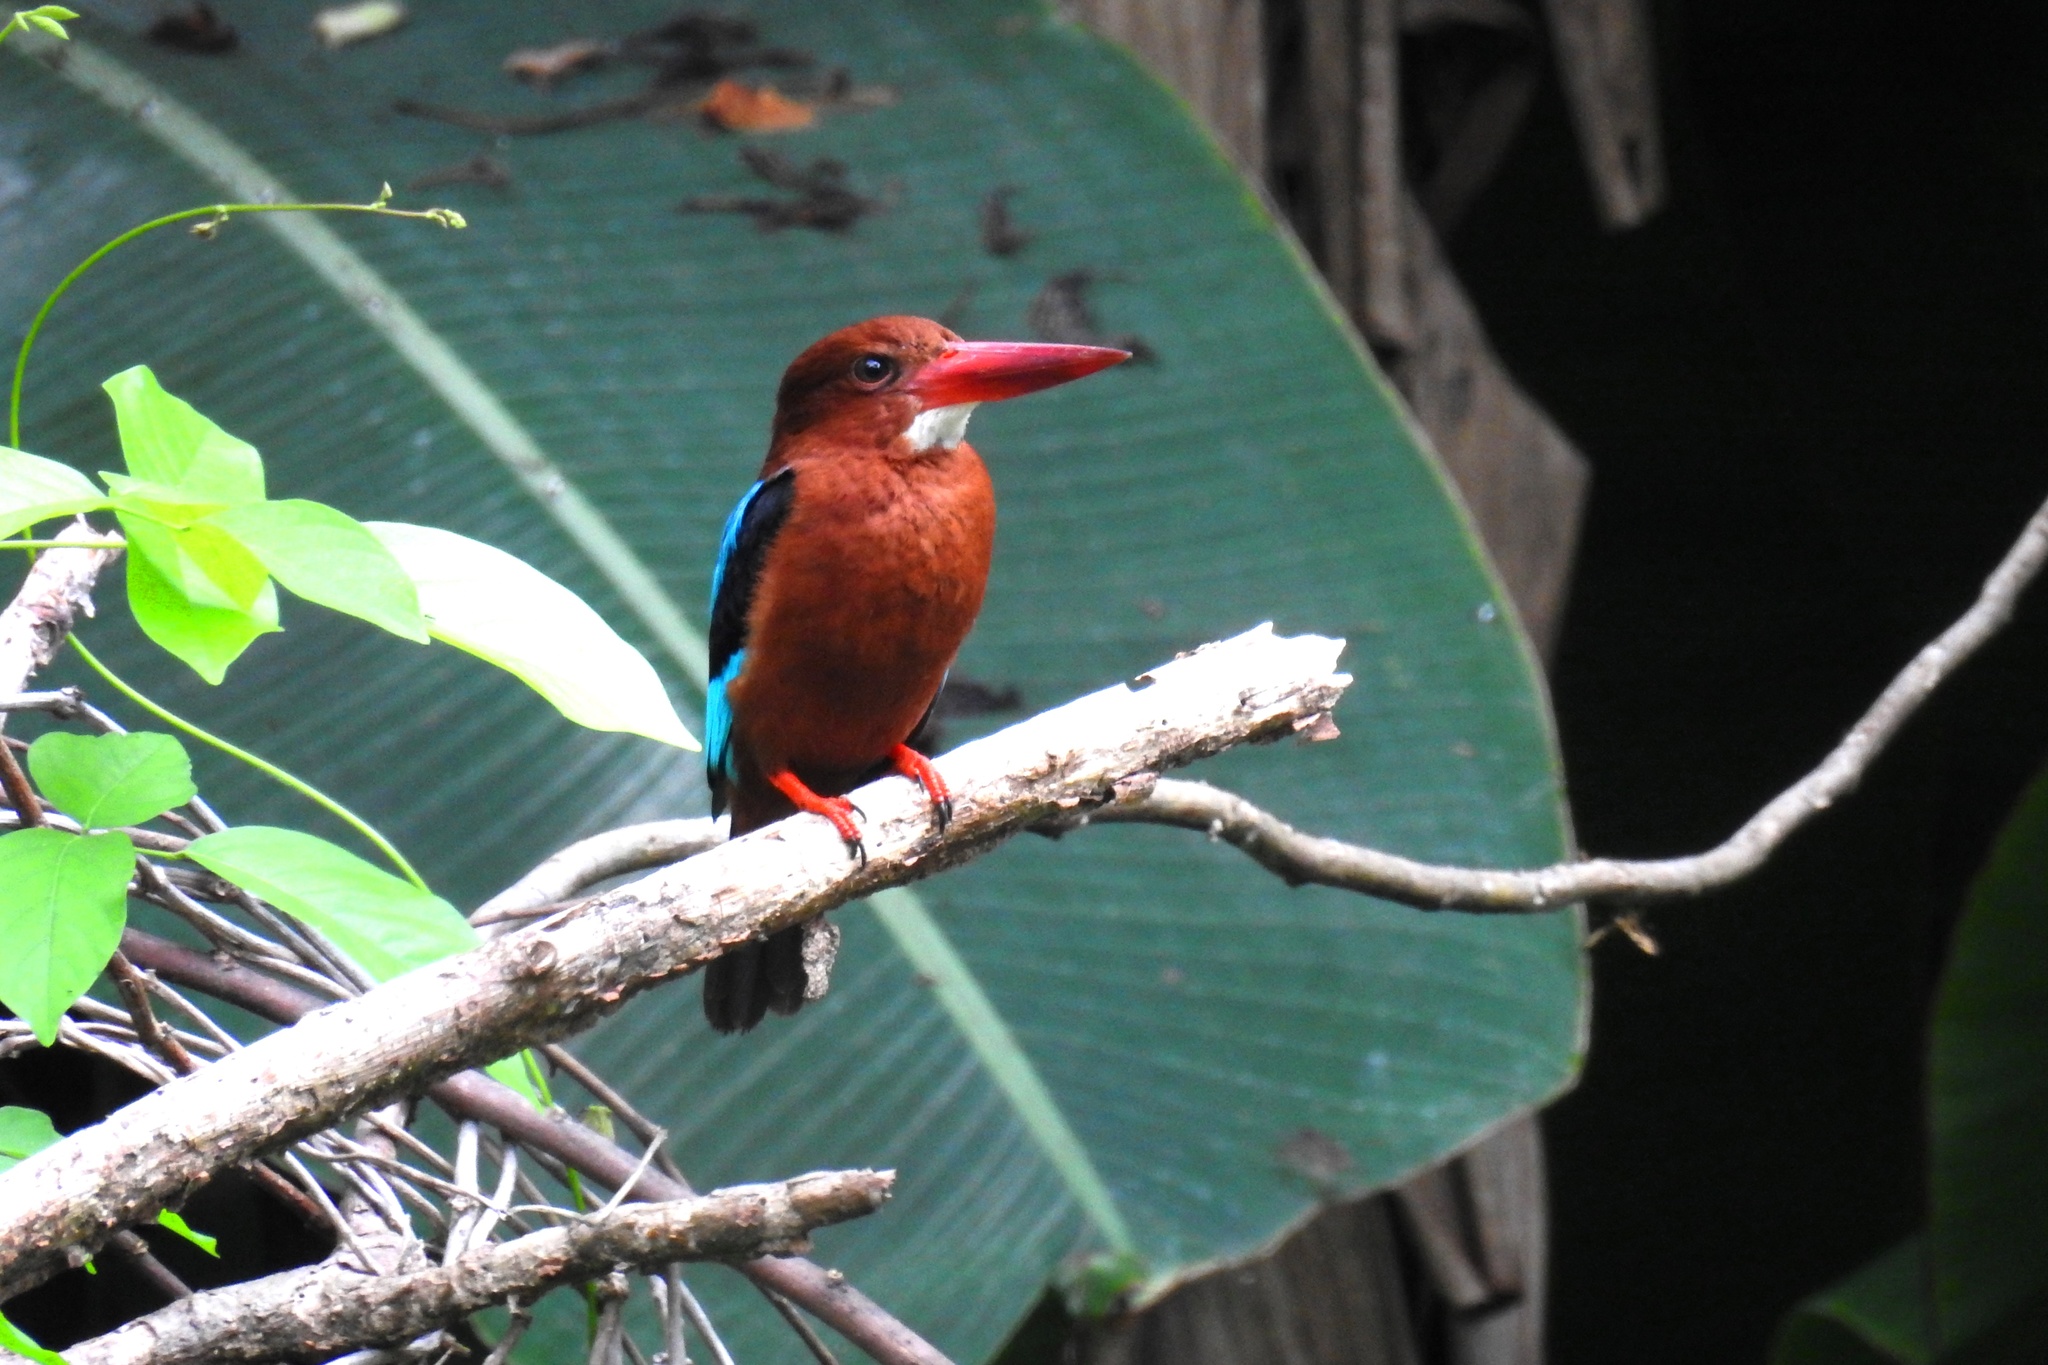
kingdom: Animalia
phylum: Chordata
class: Aves
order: Coraciiformes
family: Alcedinidae
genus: Halcyon
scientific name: Halcyon gularis
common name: Brown-breasted kingfisher
